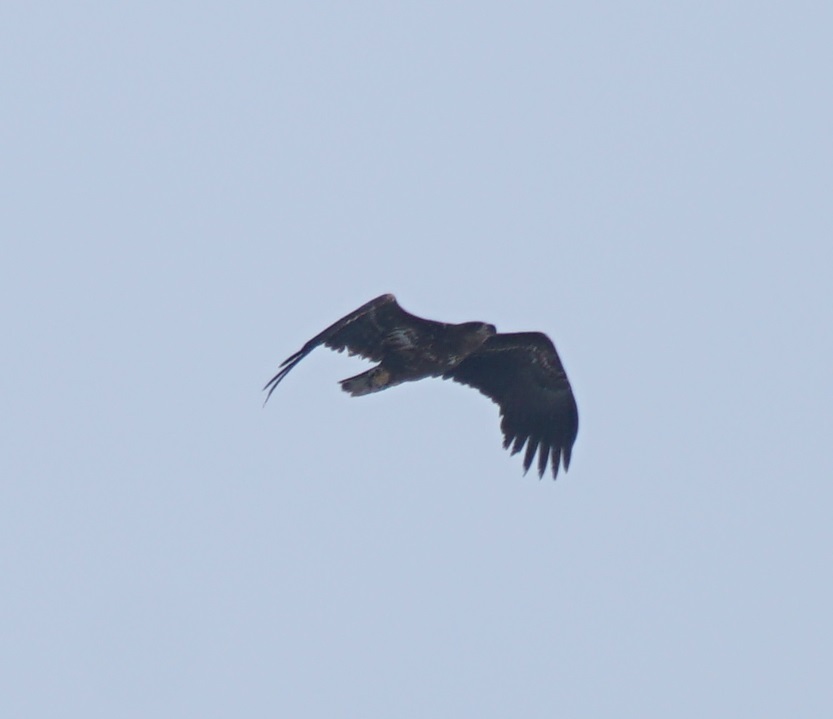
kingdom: Animalia
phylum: Chordata
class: Aves
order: Accipitriformes
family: Accipitridae
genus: Haliaeetus
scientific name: Haliaeetus albicilla
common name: White-tailed eagle
